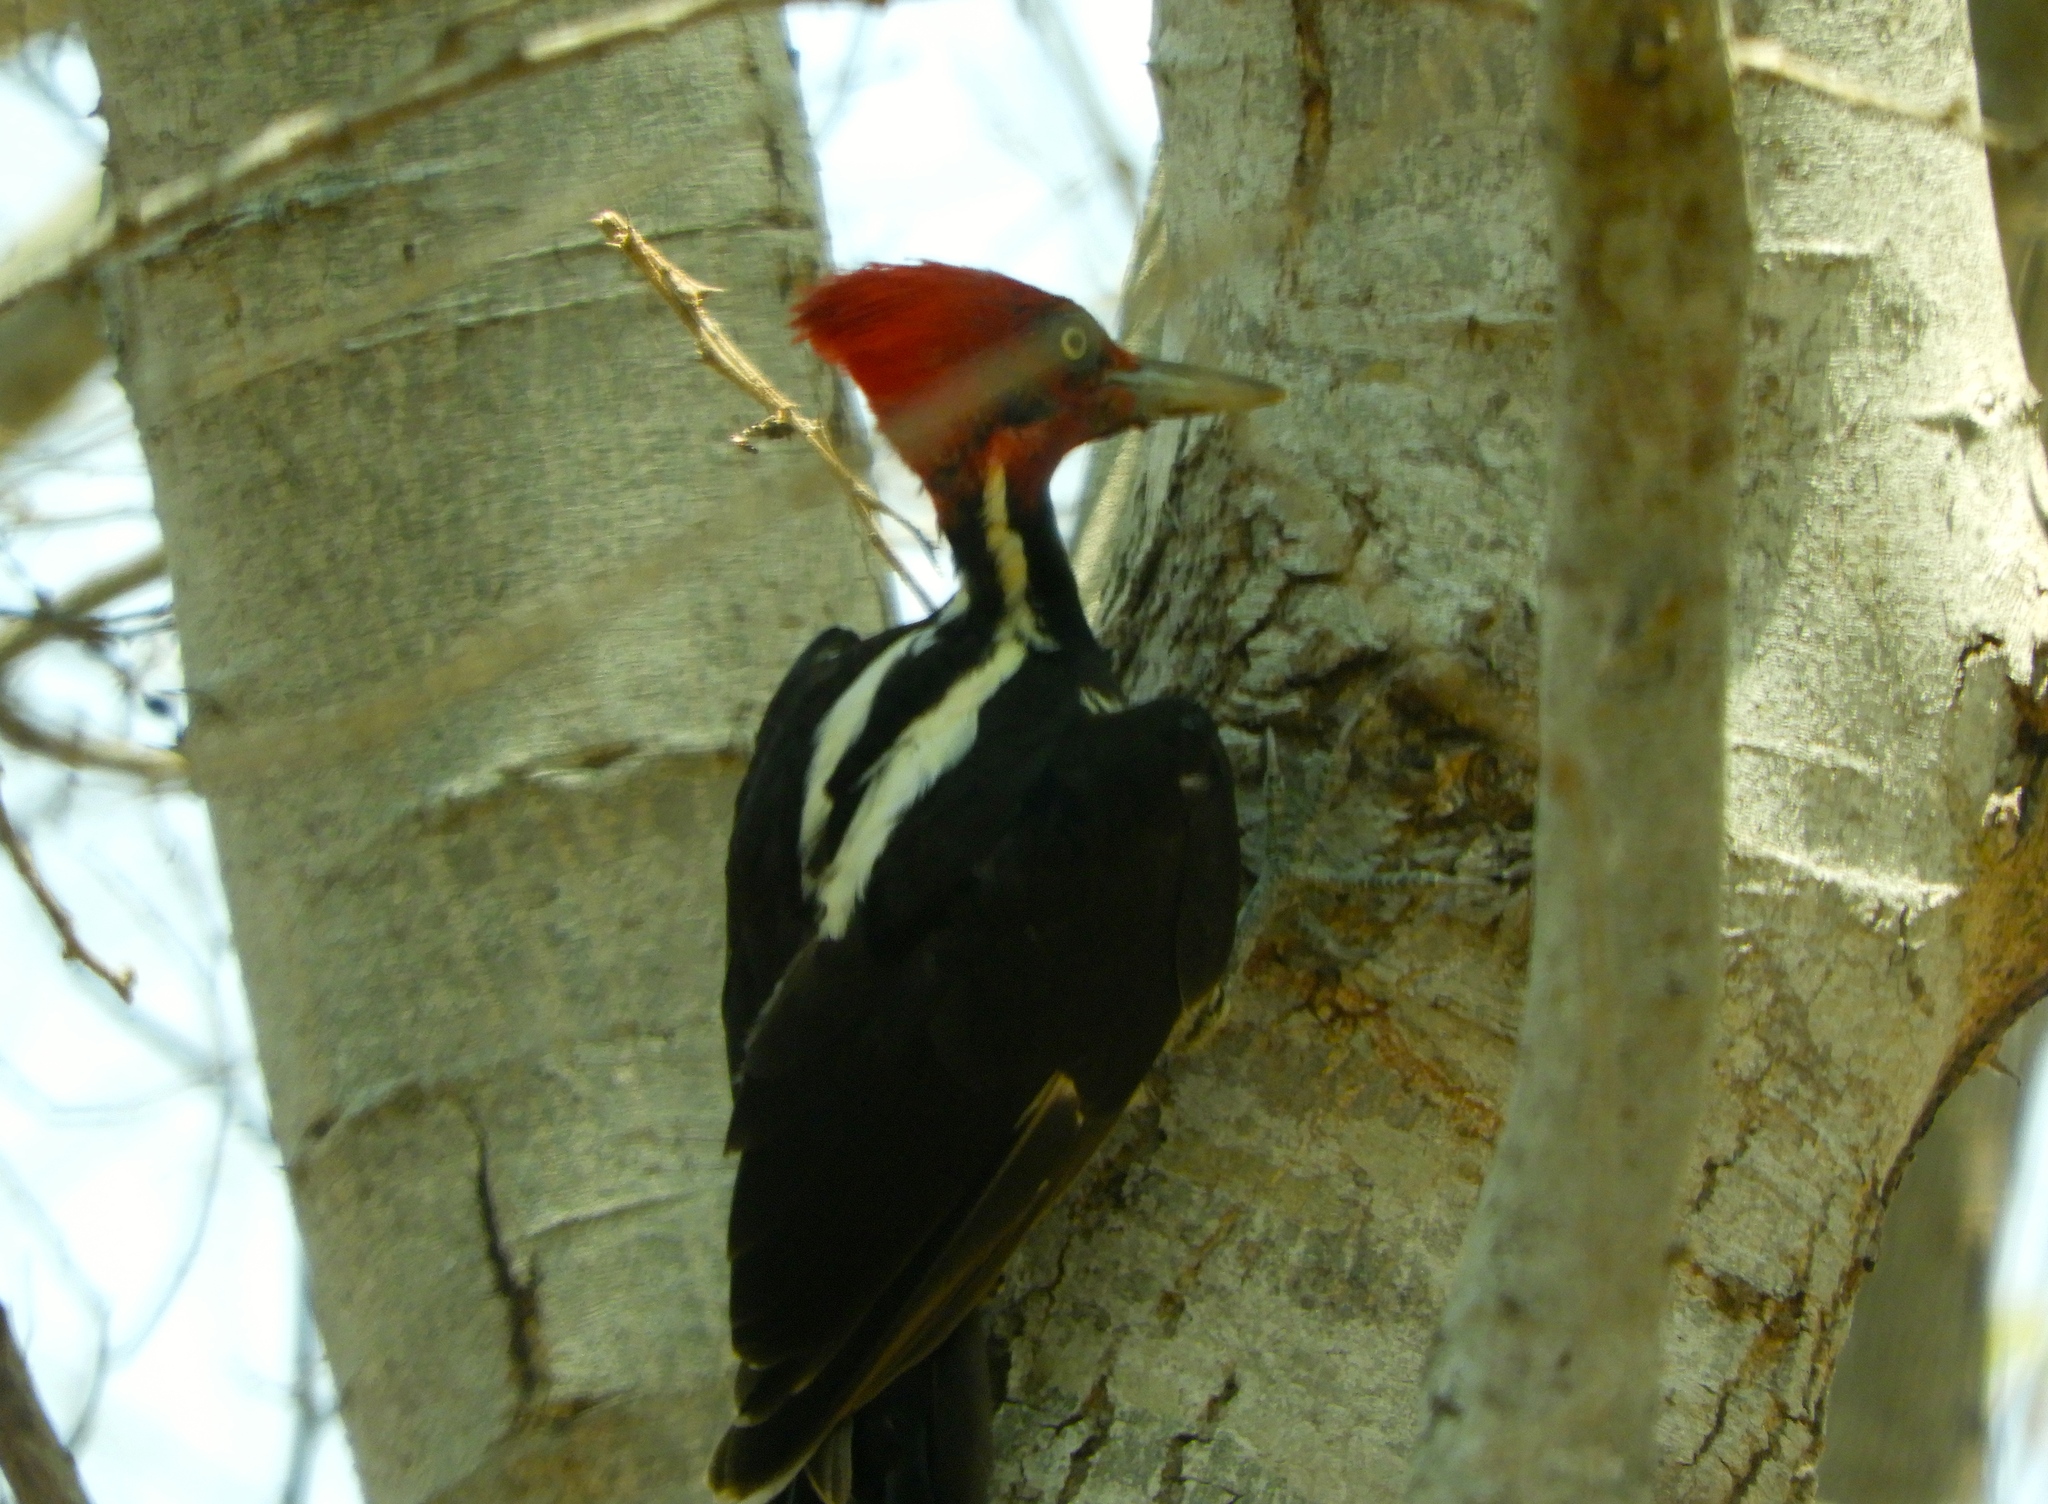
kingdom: Animalia
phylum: Chordata
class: Aves
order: Piciformes
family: Picidae
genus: Campephilus
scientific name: Campephilus guatemalensis
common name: Pale-billed woodpecker
